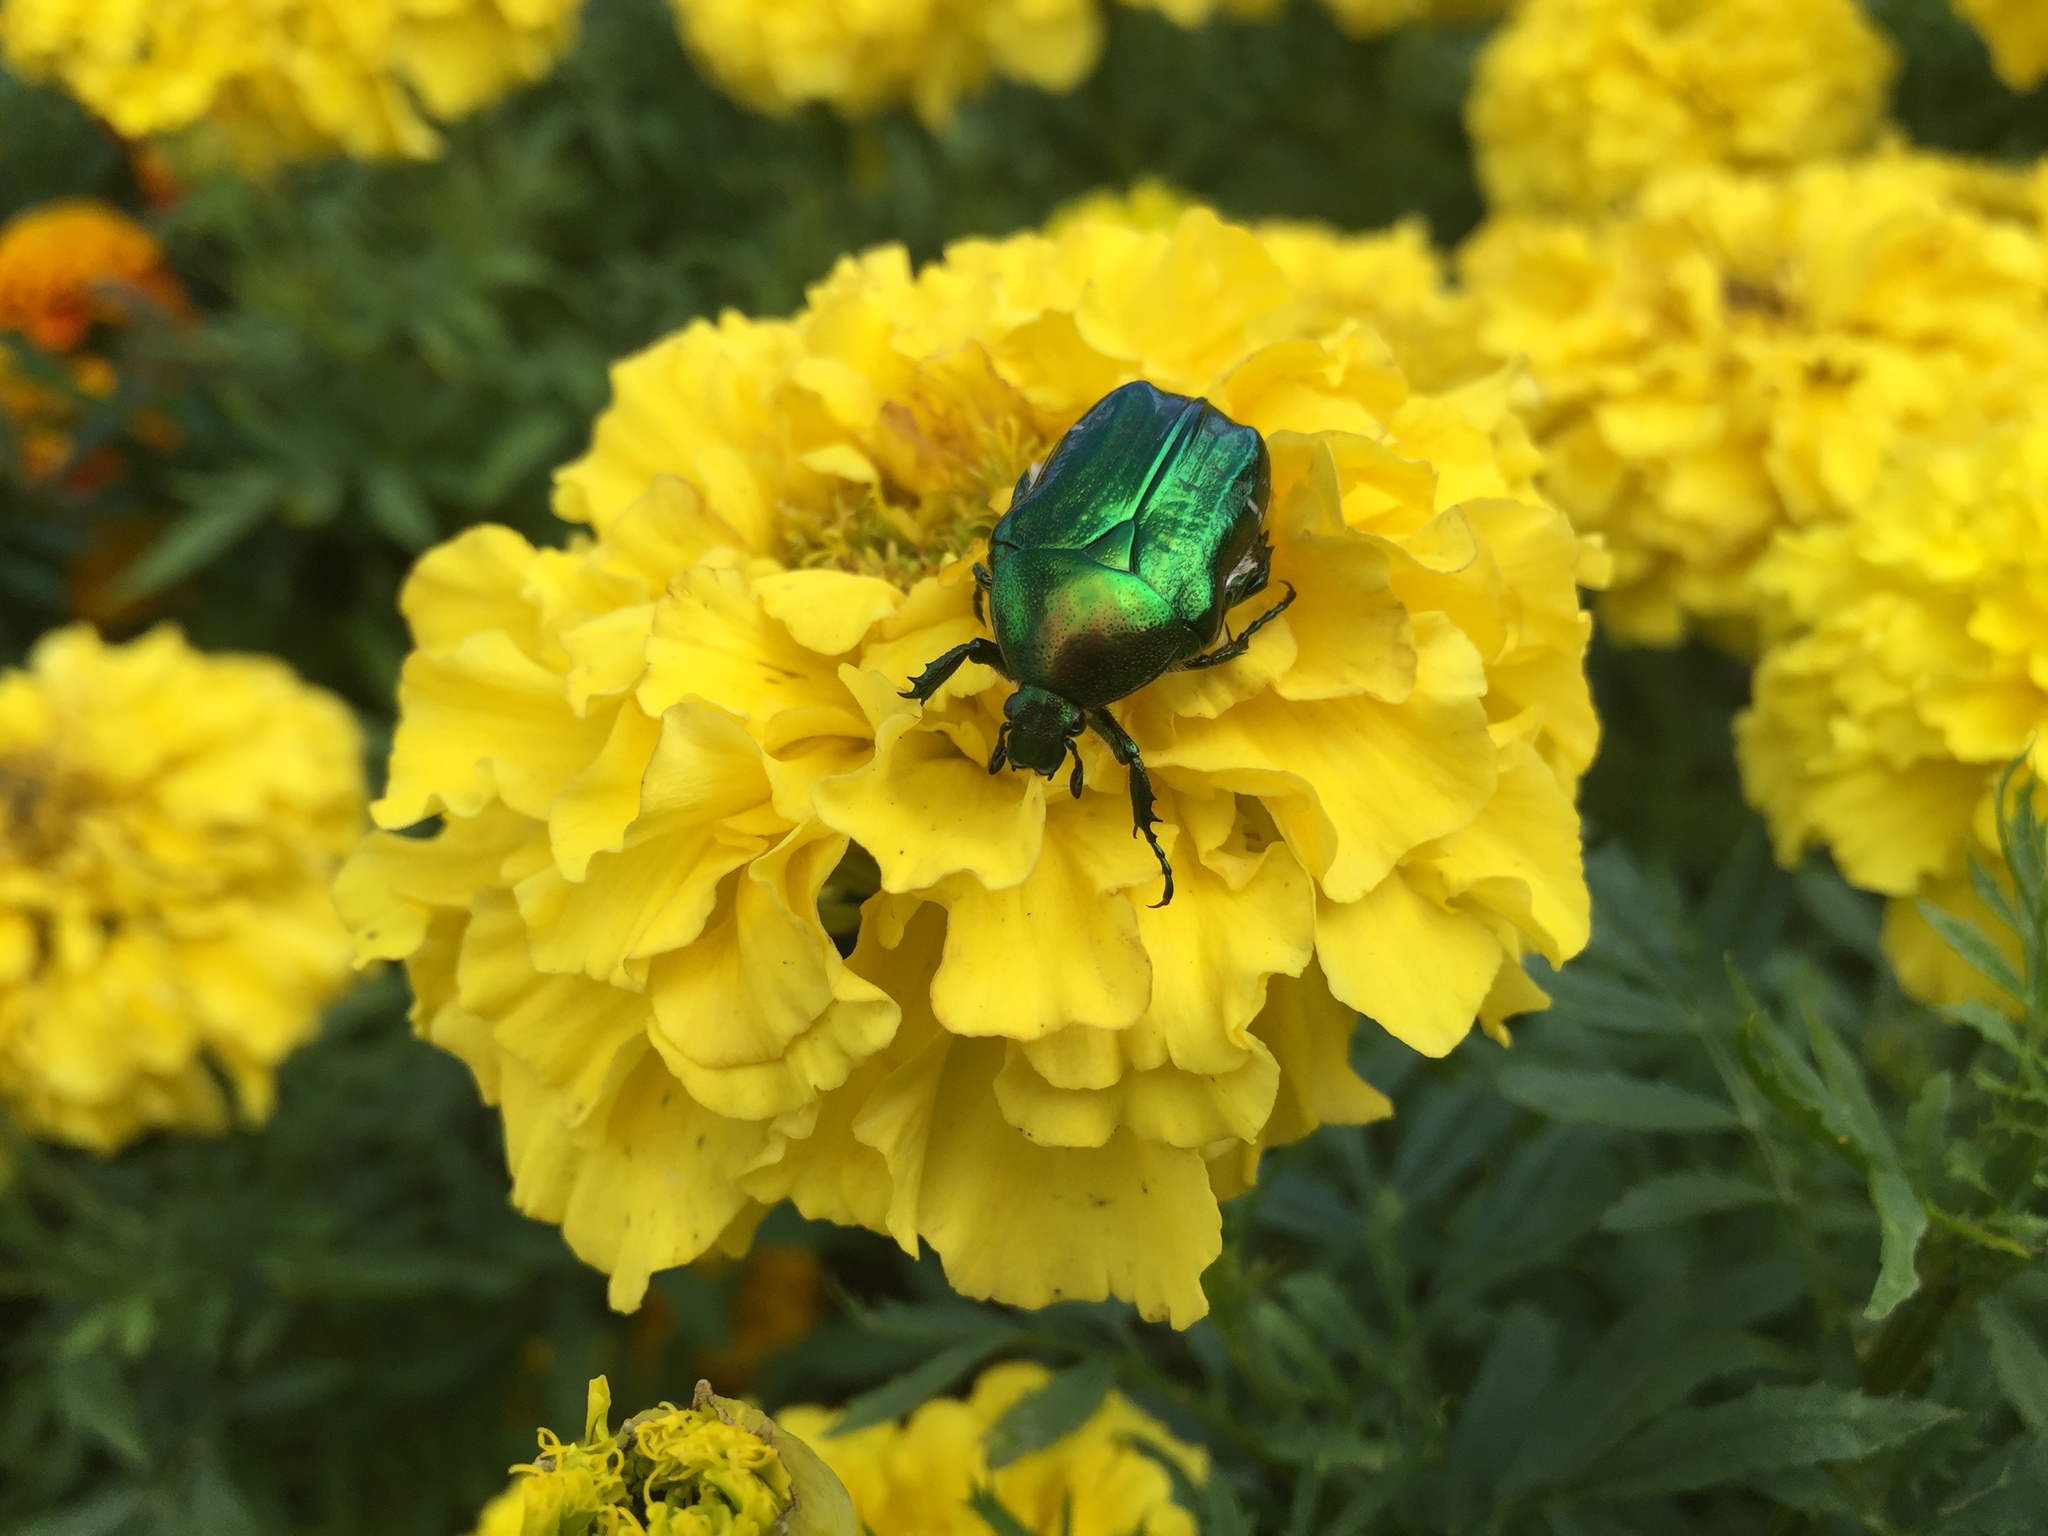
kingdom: Animalia
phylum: Arthropoda
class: Insecta
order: Coleoptera
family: Scarabaeidae
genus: Cetonia
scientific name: Cetonia aurata
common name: Rose chafer
